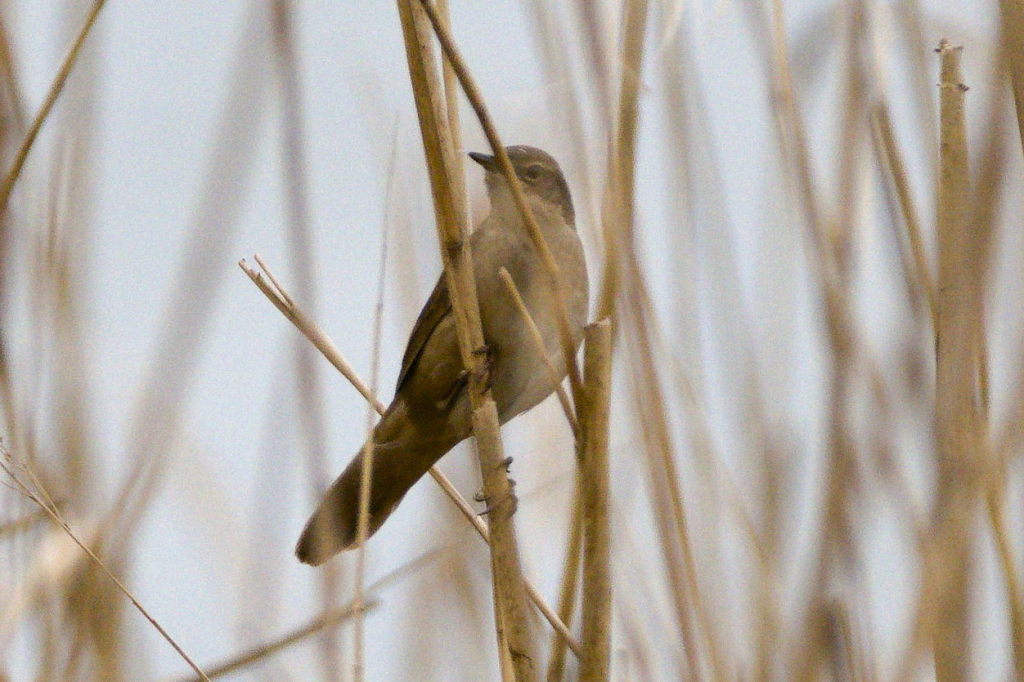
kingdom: Animalia
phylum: Chordata
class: Aves
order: Passeriformes
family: Locustellidae
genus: Locustella
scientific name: Locustella luscinioides
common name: Savi's warbler
